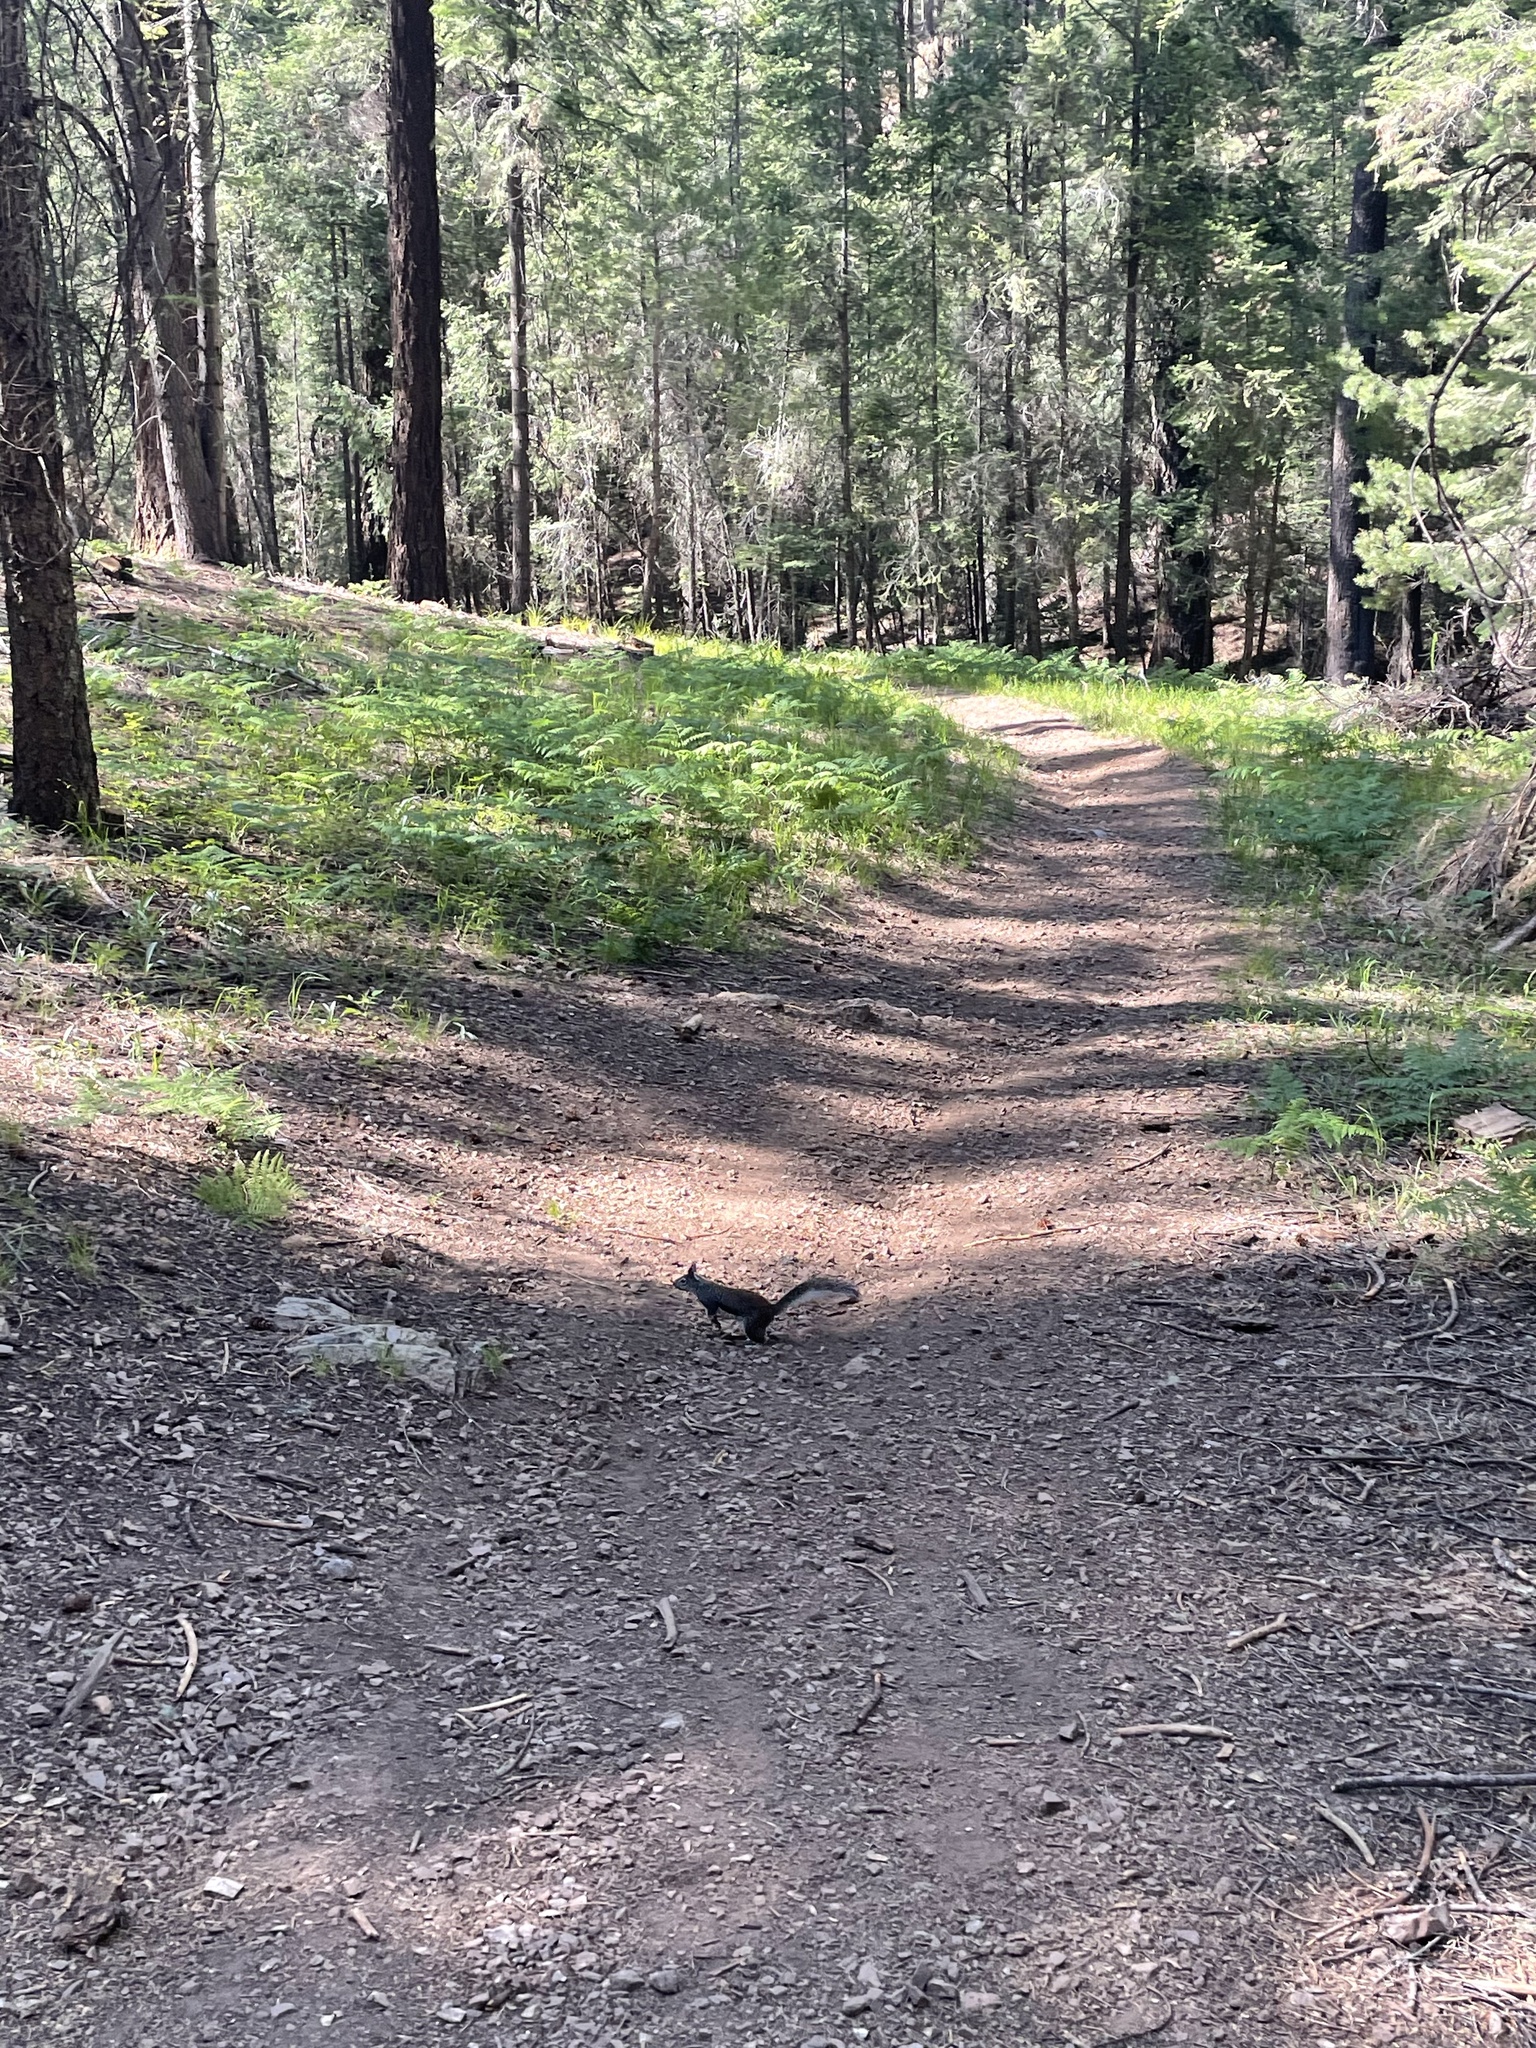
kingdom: Animalia
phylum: Chordata
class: Mammalia
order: Rodentia
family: Sciuridae
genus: Sciurus
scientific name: Sciurus aberti
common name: Abert's squirrel
